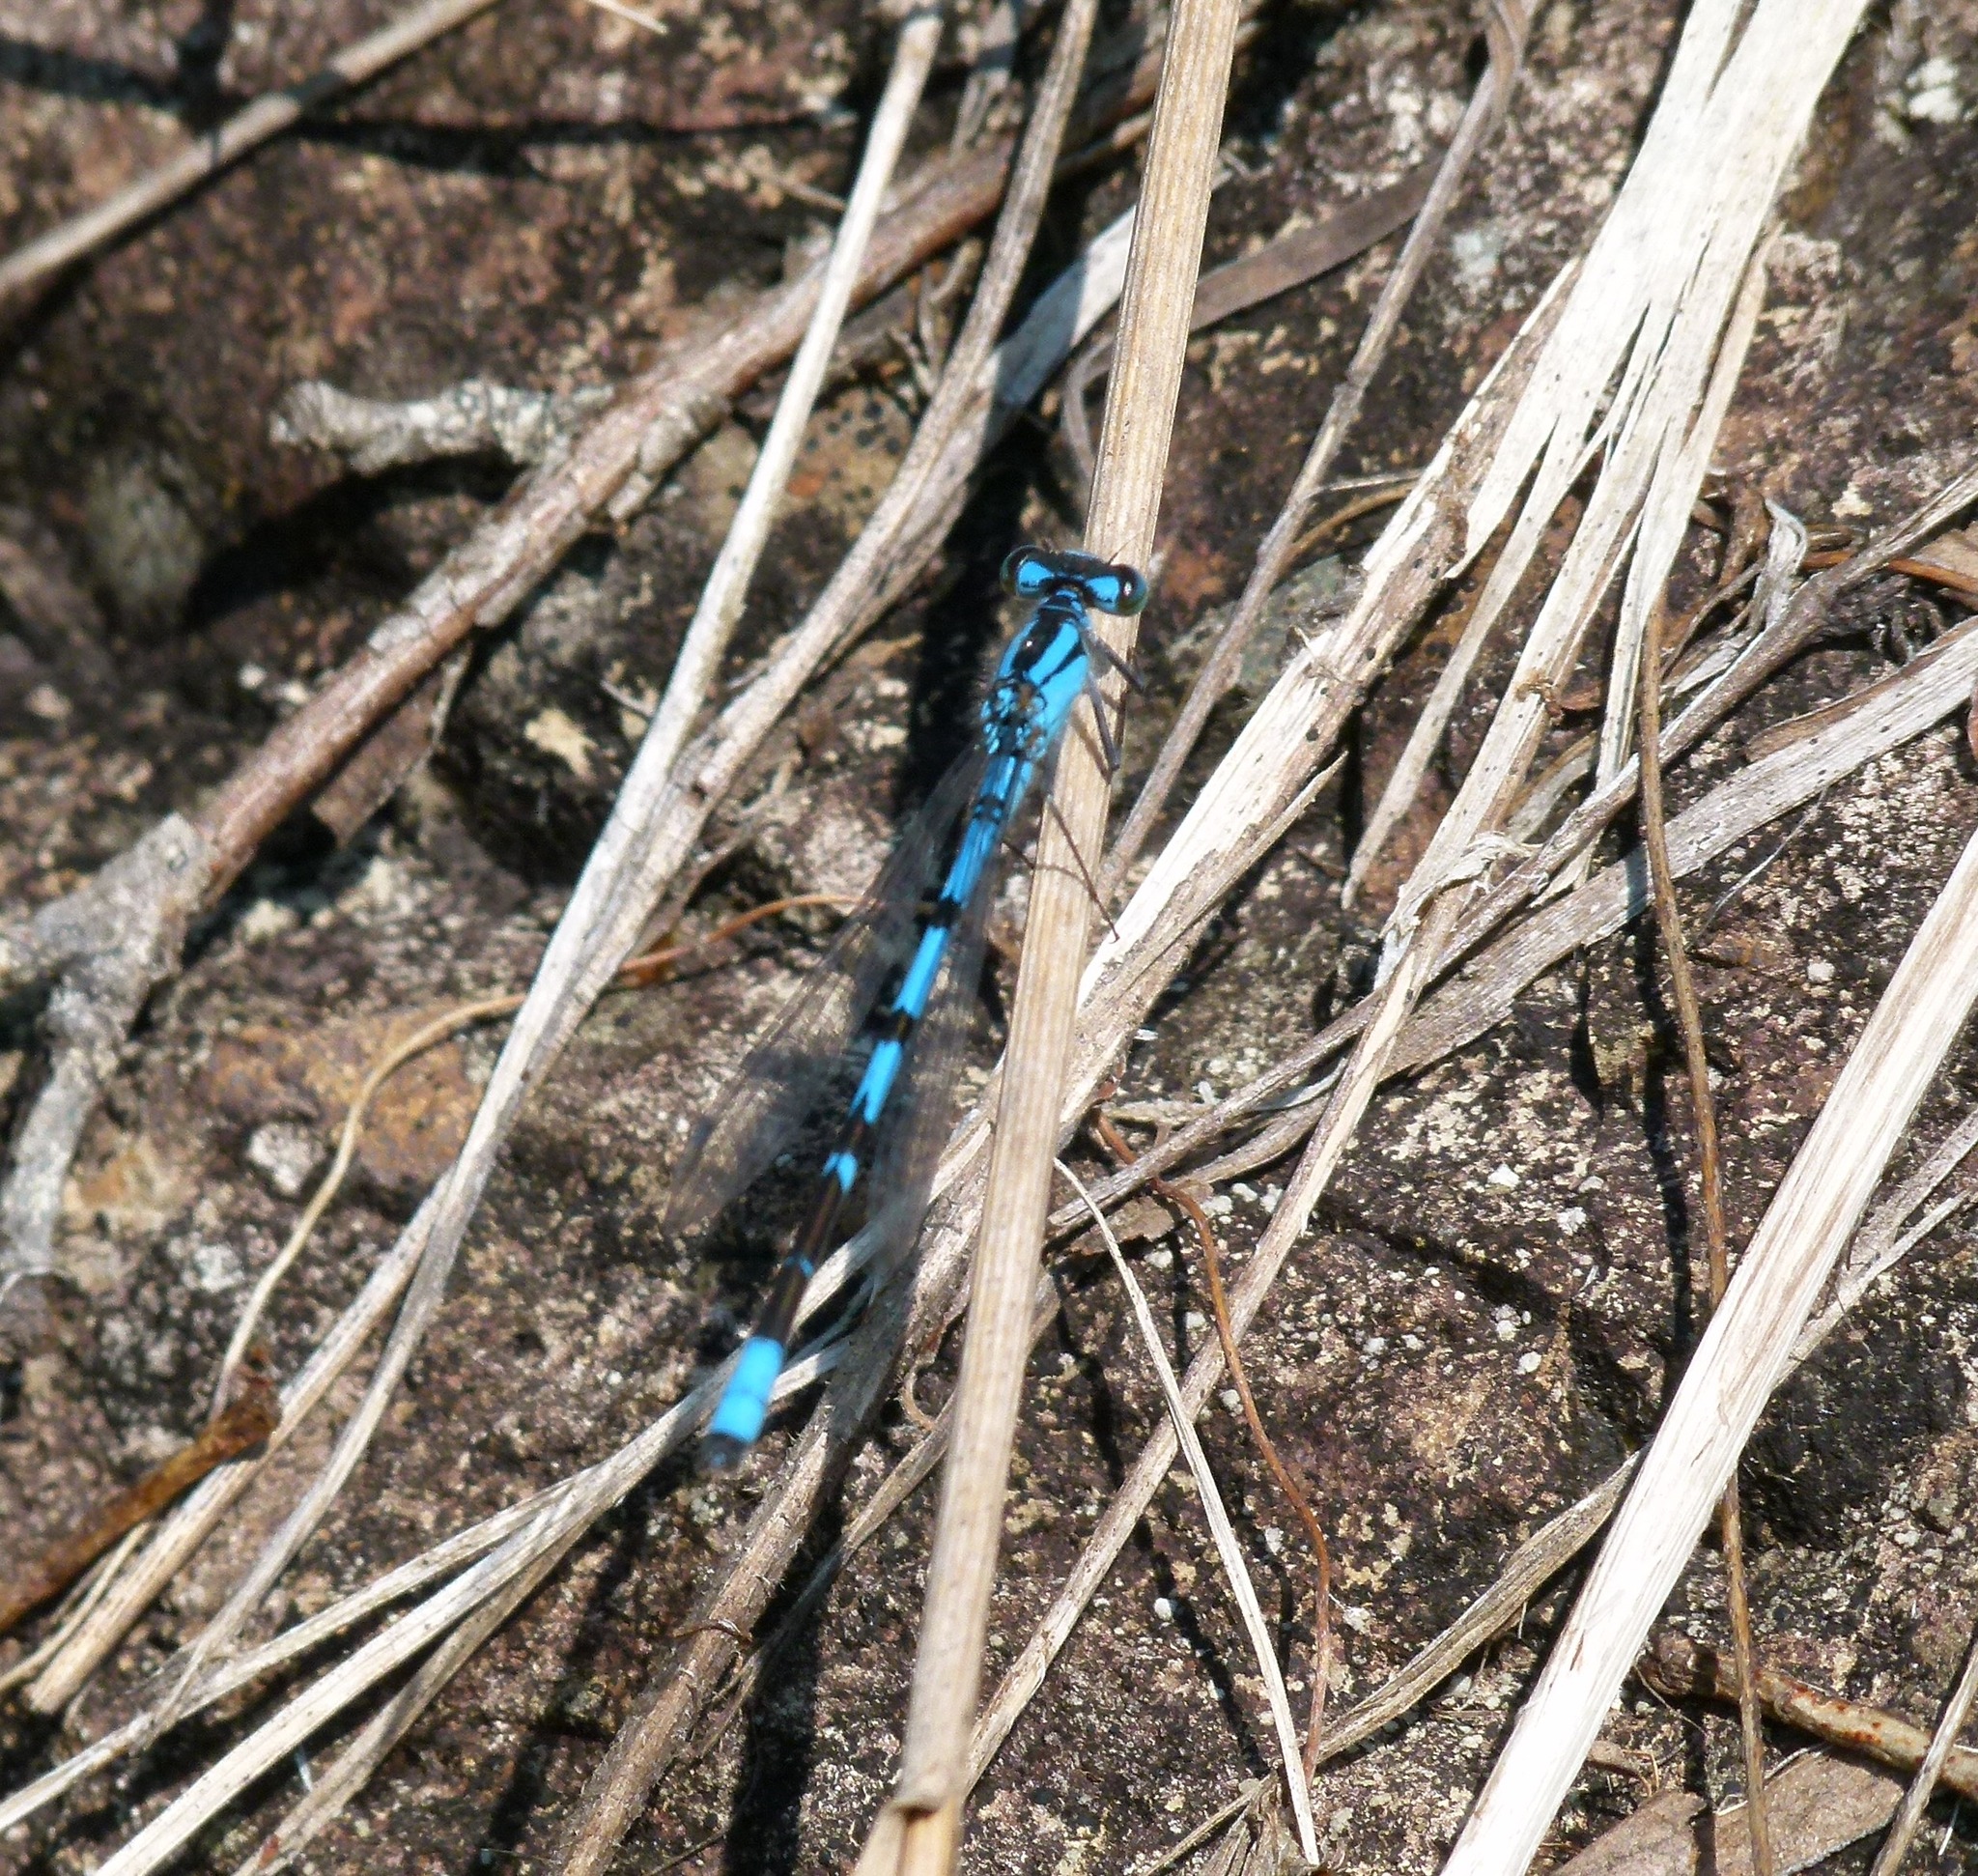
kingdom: Animalia
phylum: Arthropoda
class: Insecta
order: Odonata
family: Coenagrionidae
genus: Enallagma
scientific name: Enallagma civile
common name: Damselfly
